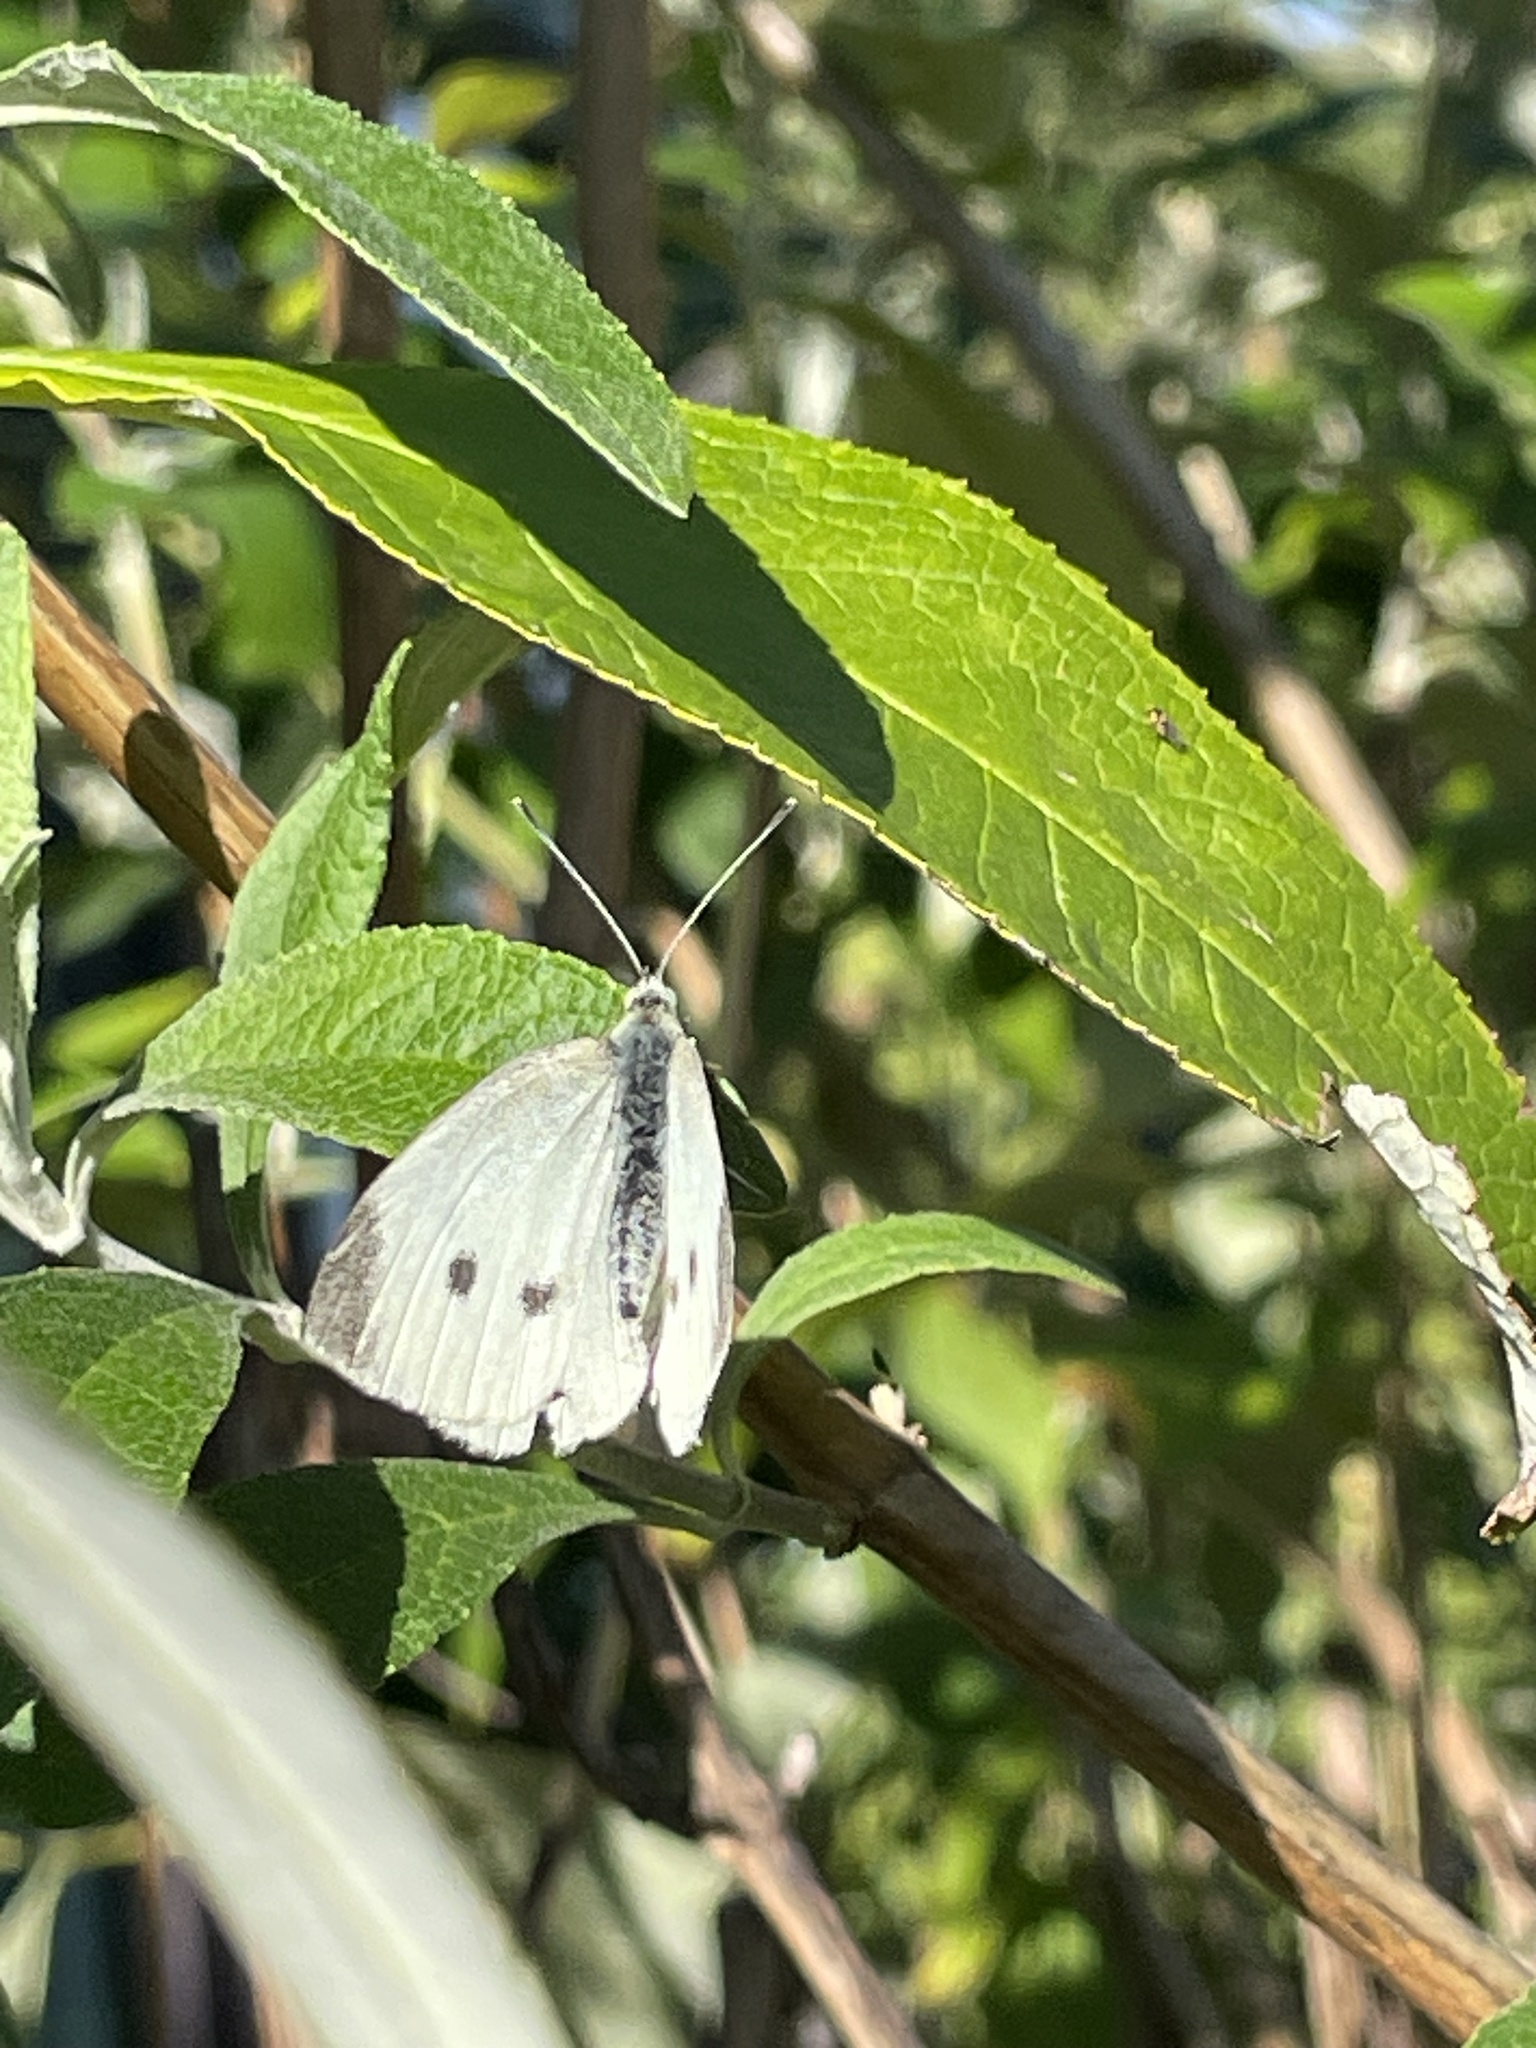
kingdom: Animalia
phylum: Arthropoda
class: Insecta
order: Lepidoptera
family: Pieridae
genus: Pieris
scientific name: Pieris rapae
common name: Small white
